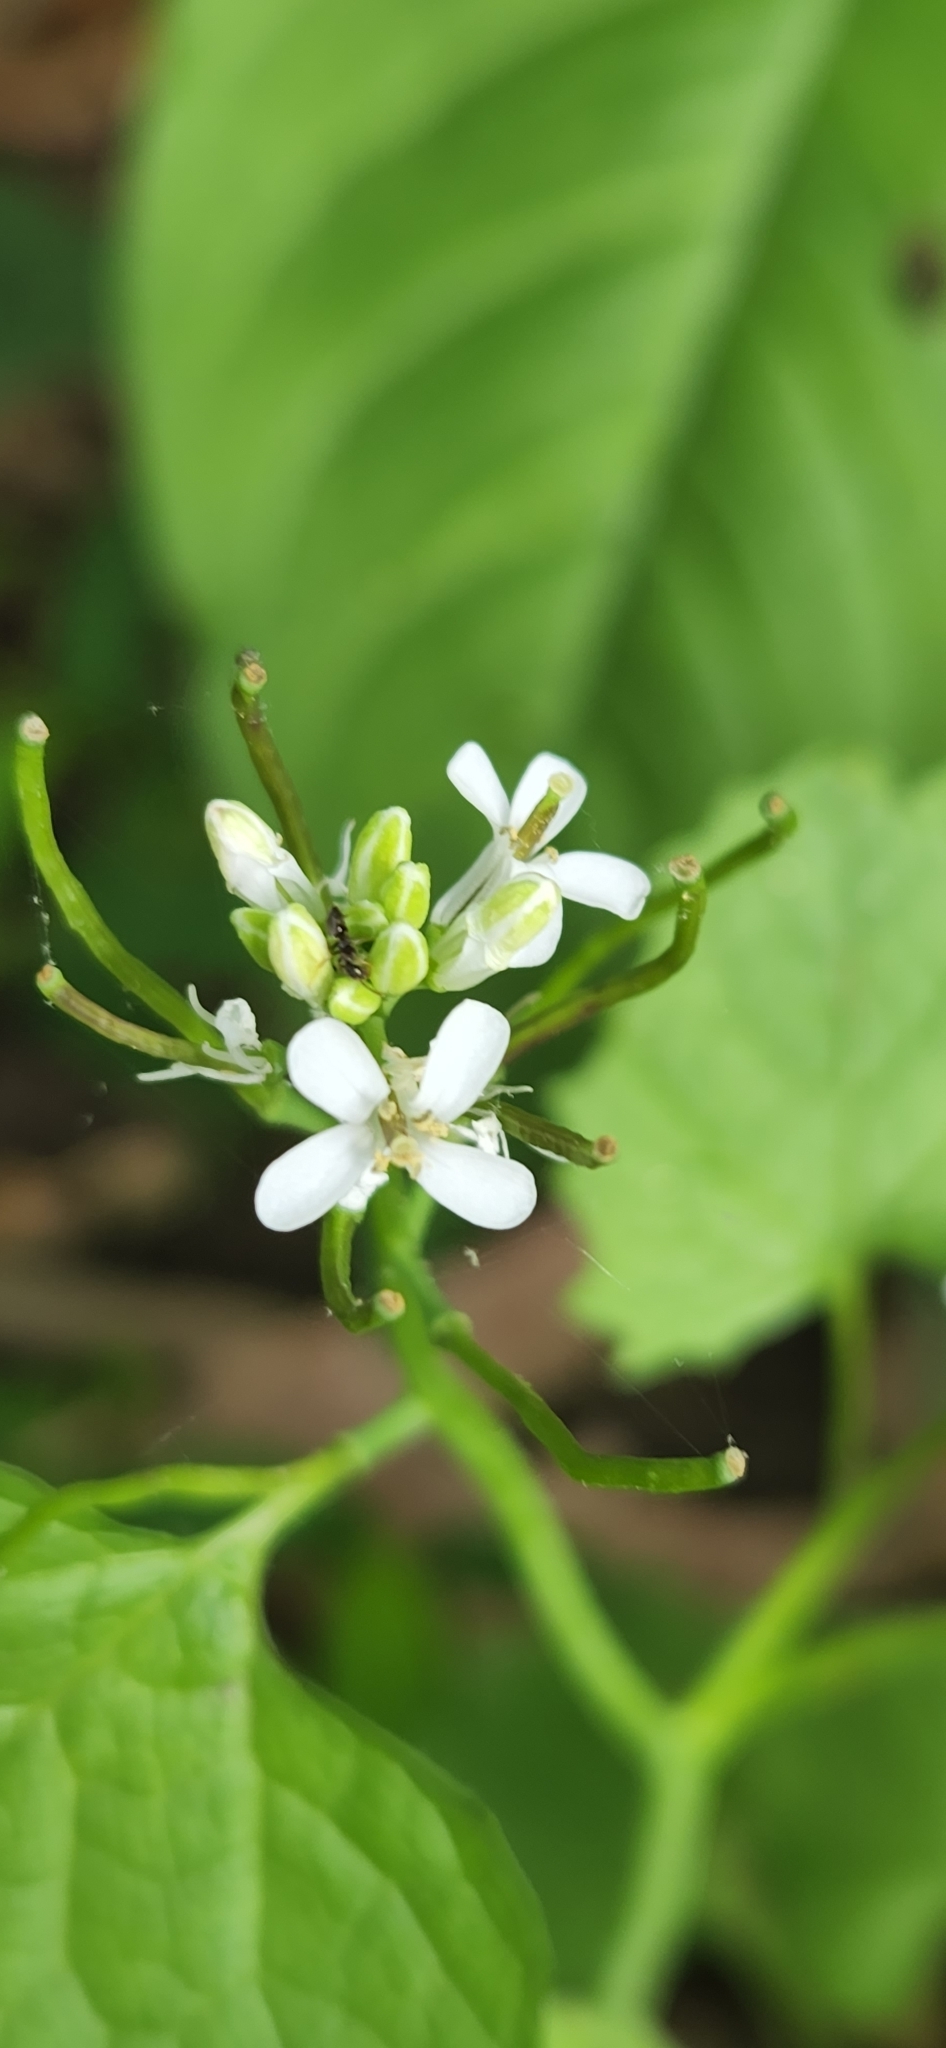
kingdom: Plantae
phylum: Tracheophyta
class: Magnoliopsida
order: Brassicales
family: Brassicaceae
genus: Alliaria
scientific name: Alliaria petiolata
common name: Garlic mustard
